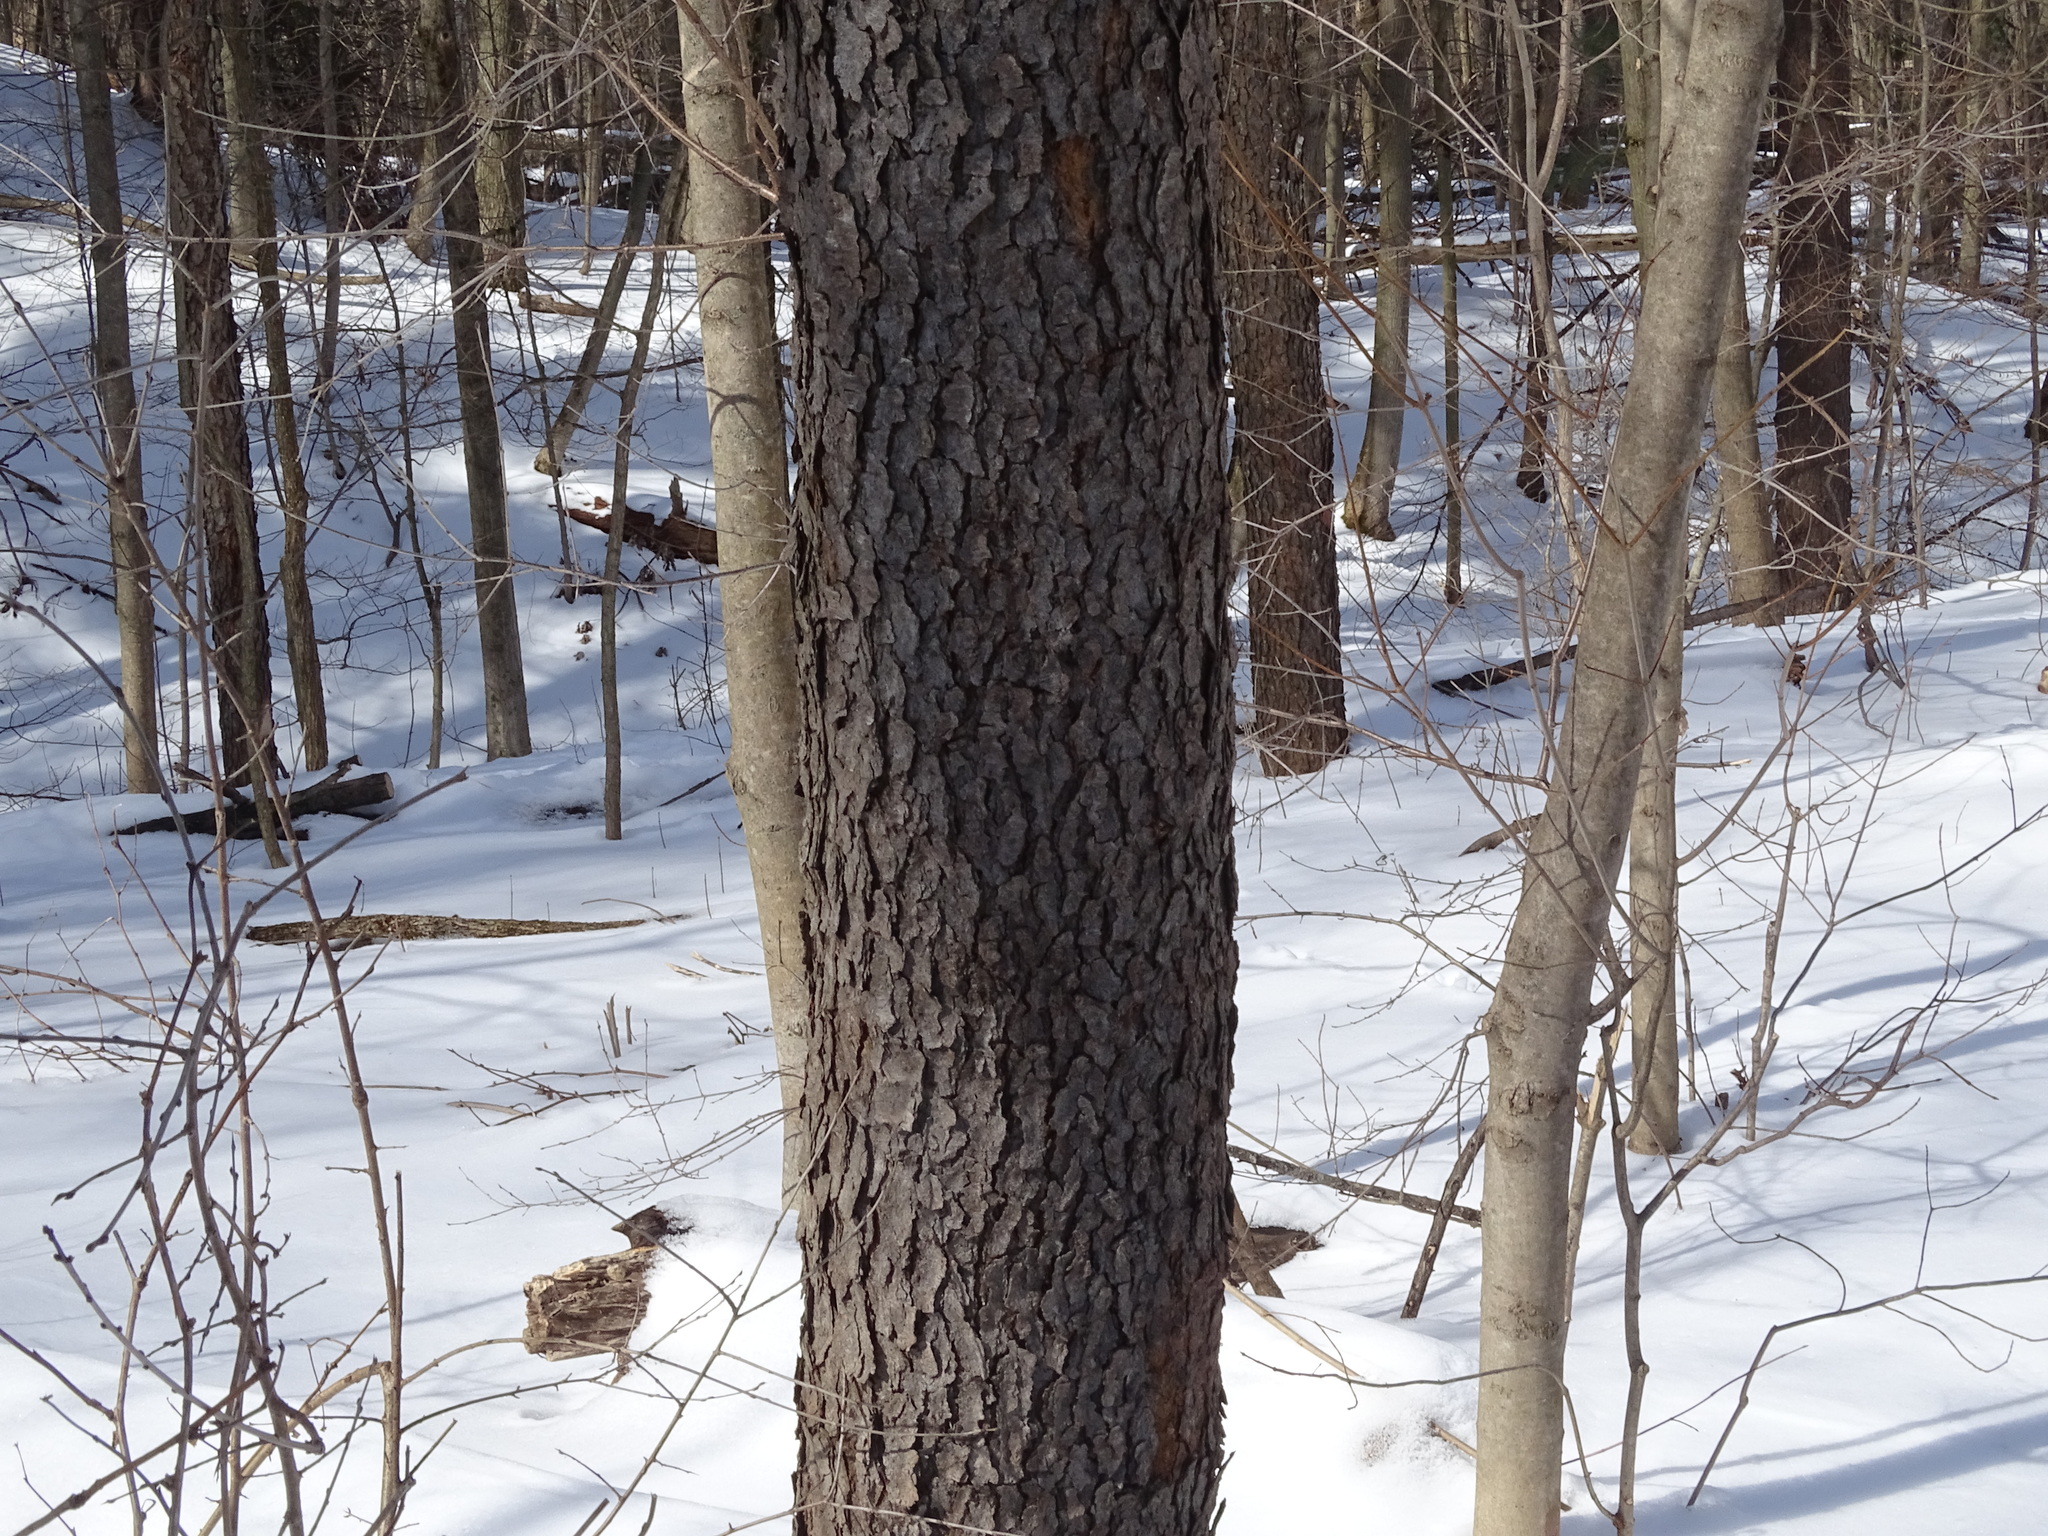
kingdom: Plantae
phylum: Tracheophyta
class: Magnoliopsida
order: Rosales
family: Rosaceae
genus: Prunus
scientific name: Prunus serotina
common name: Black cherry
